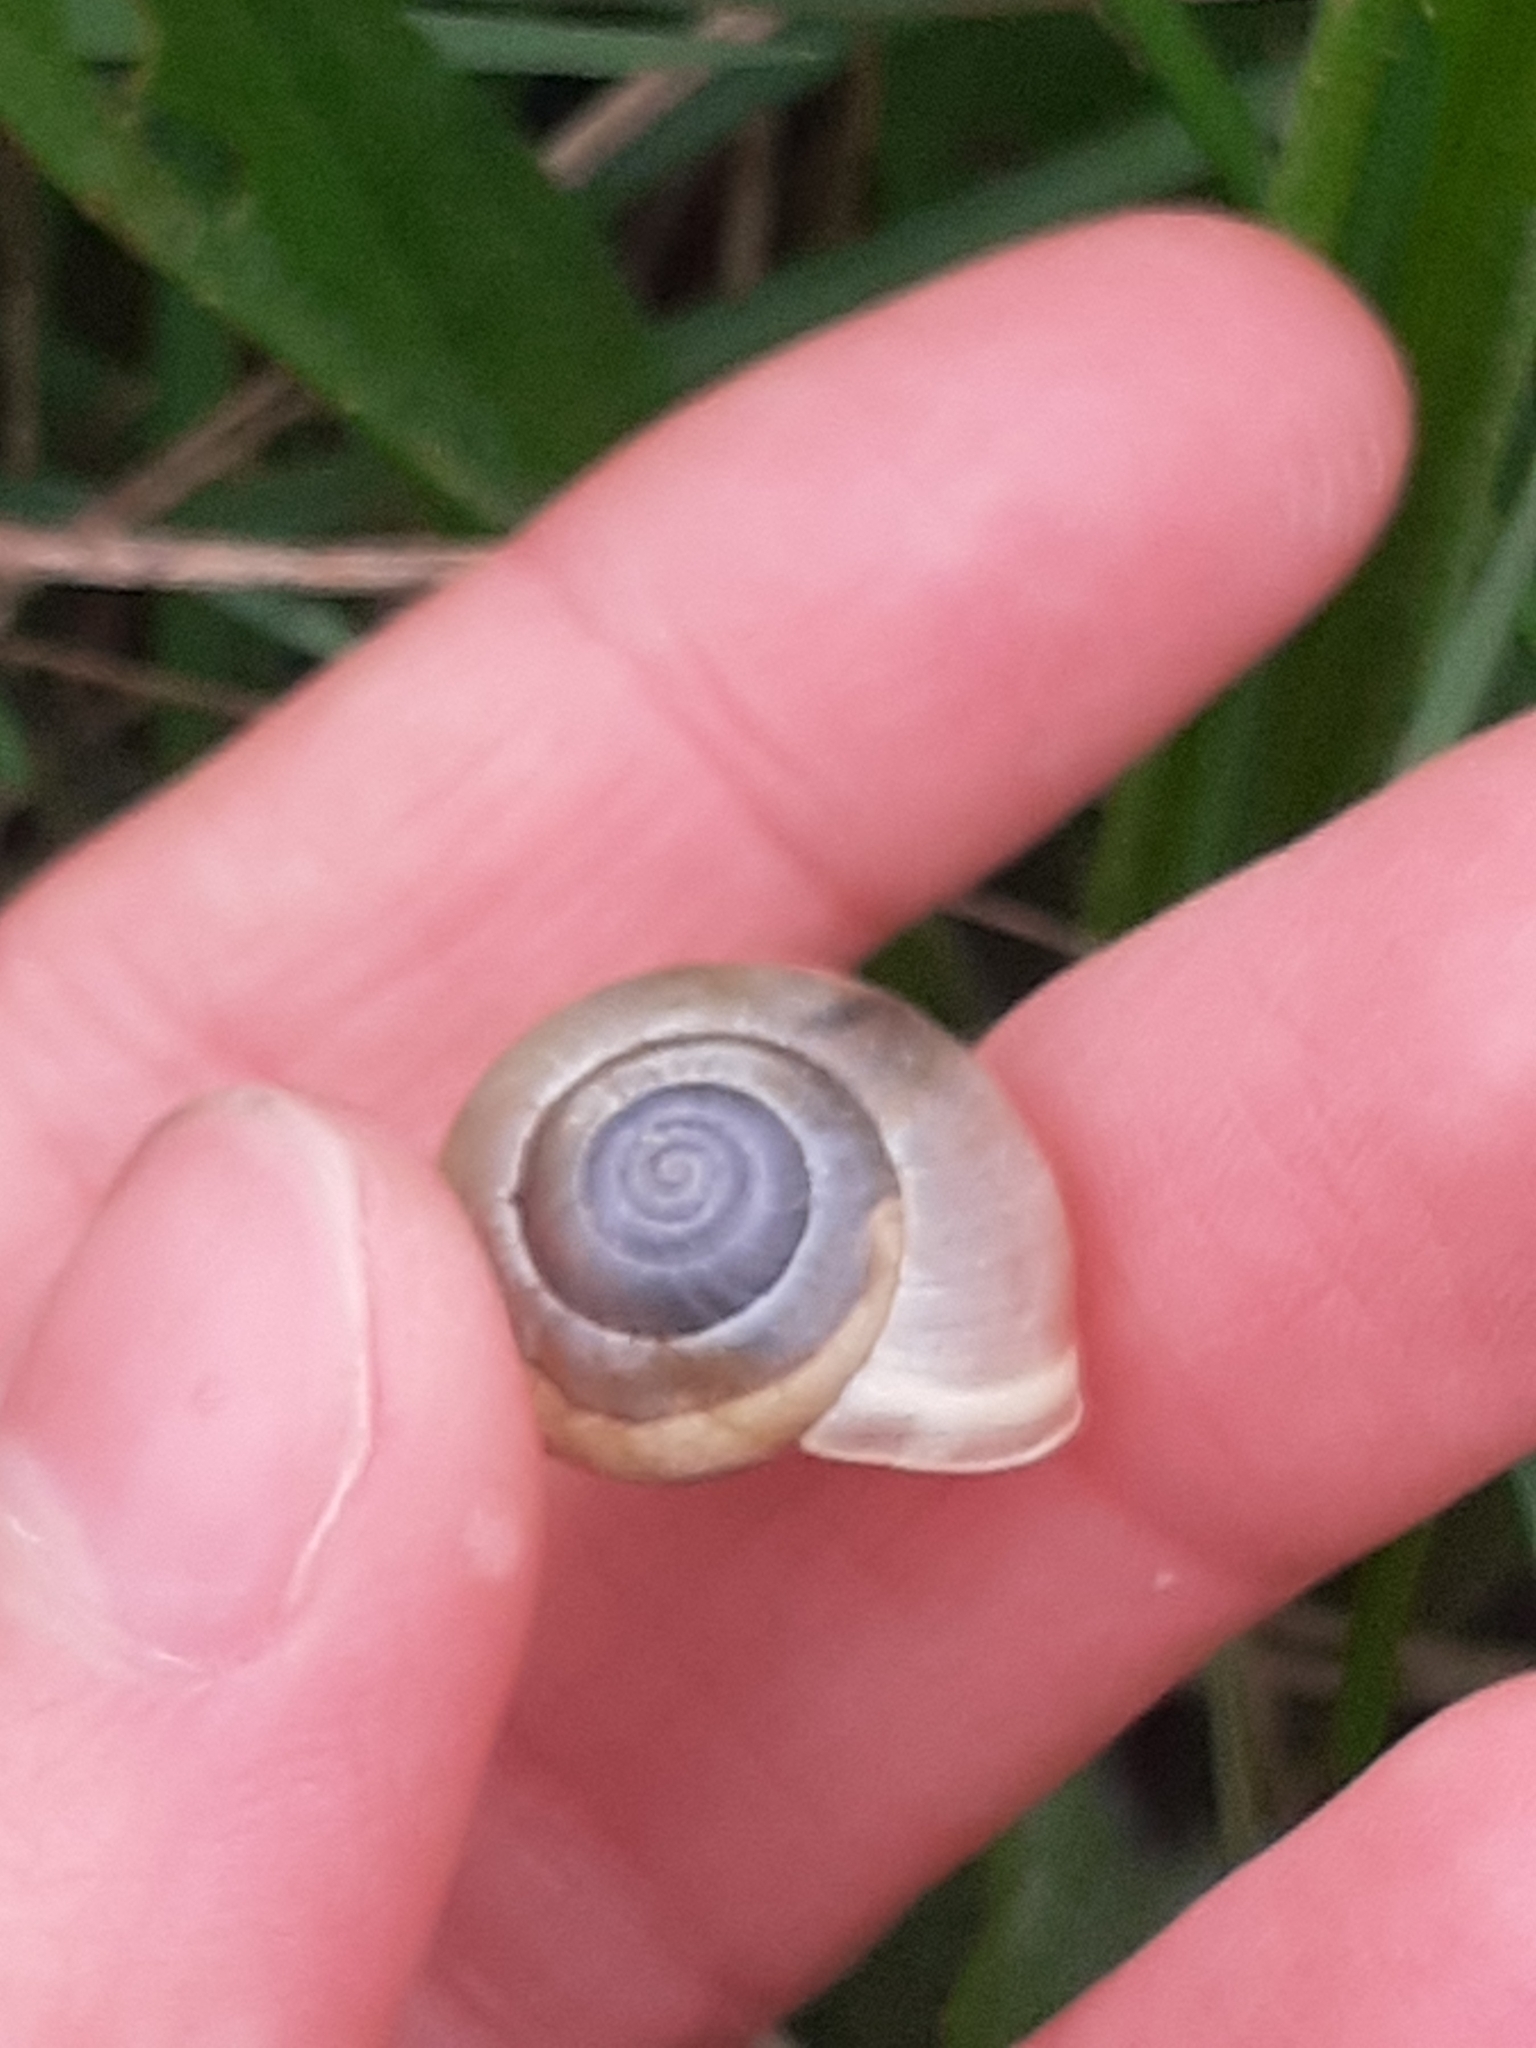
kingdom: Animalia
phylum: Mollusca
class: Gastropoda
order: Stylommatophora
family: Hygromiidae
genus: Monacha
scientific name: Monacha cantiana
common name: Kentish snail
